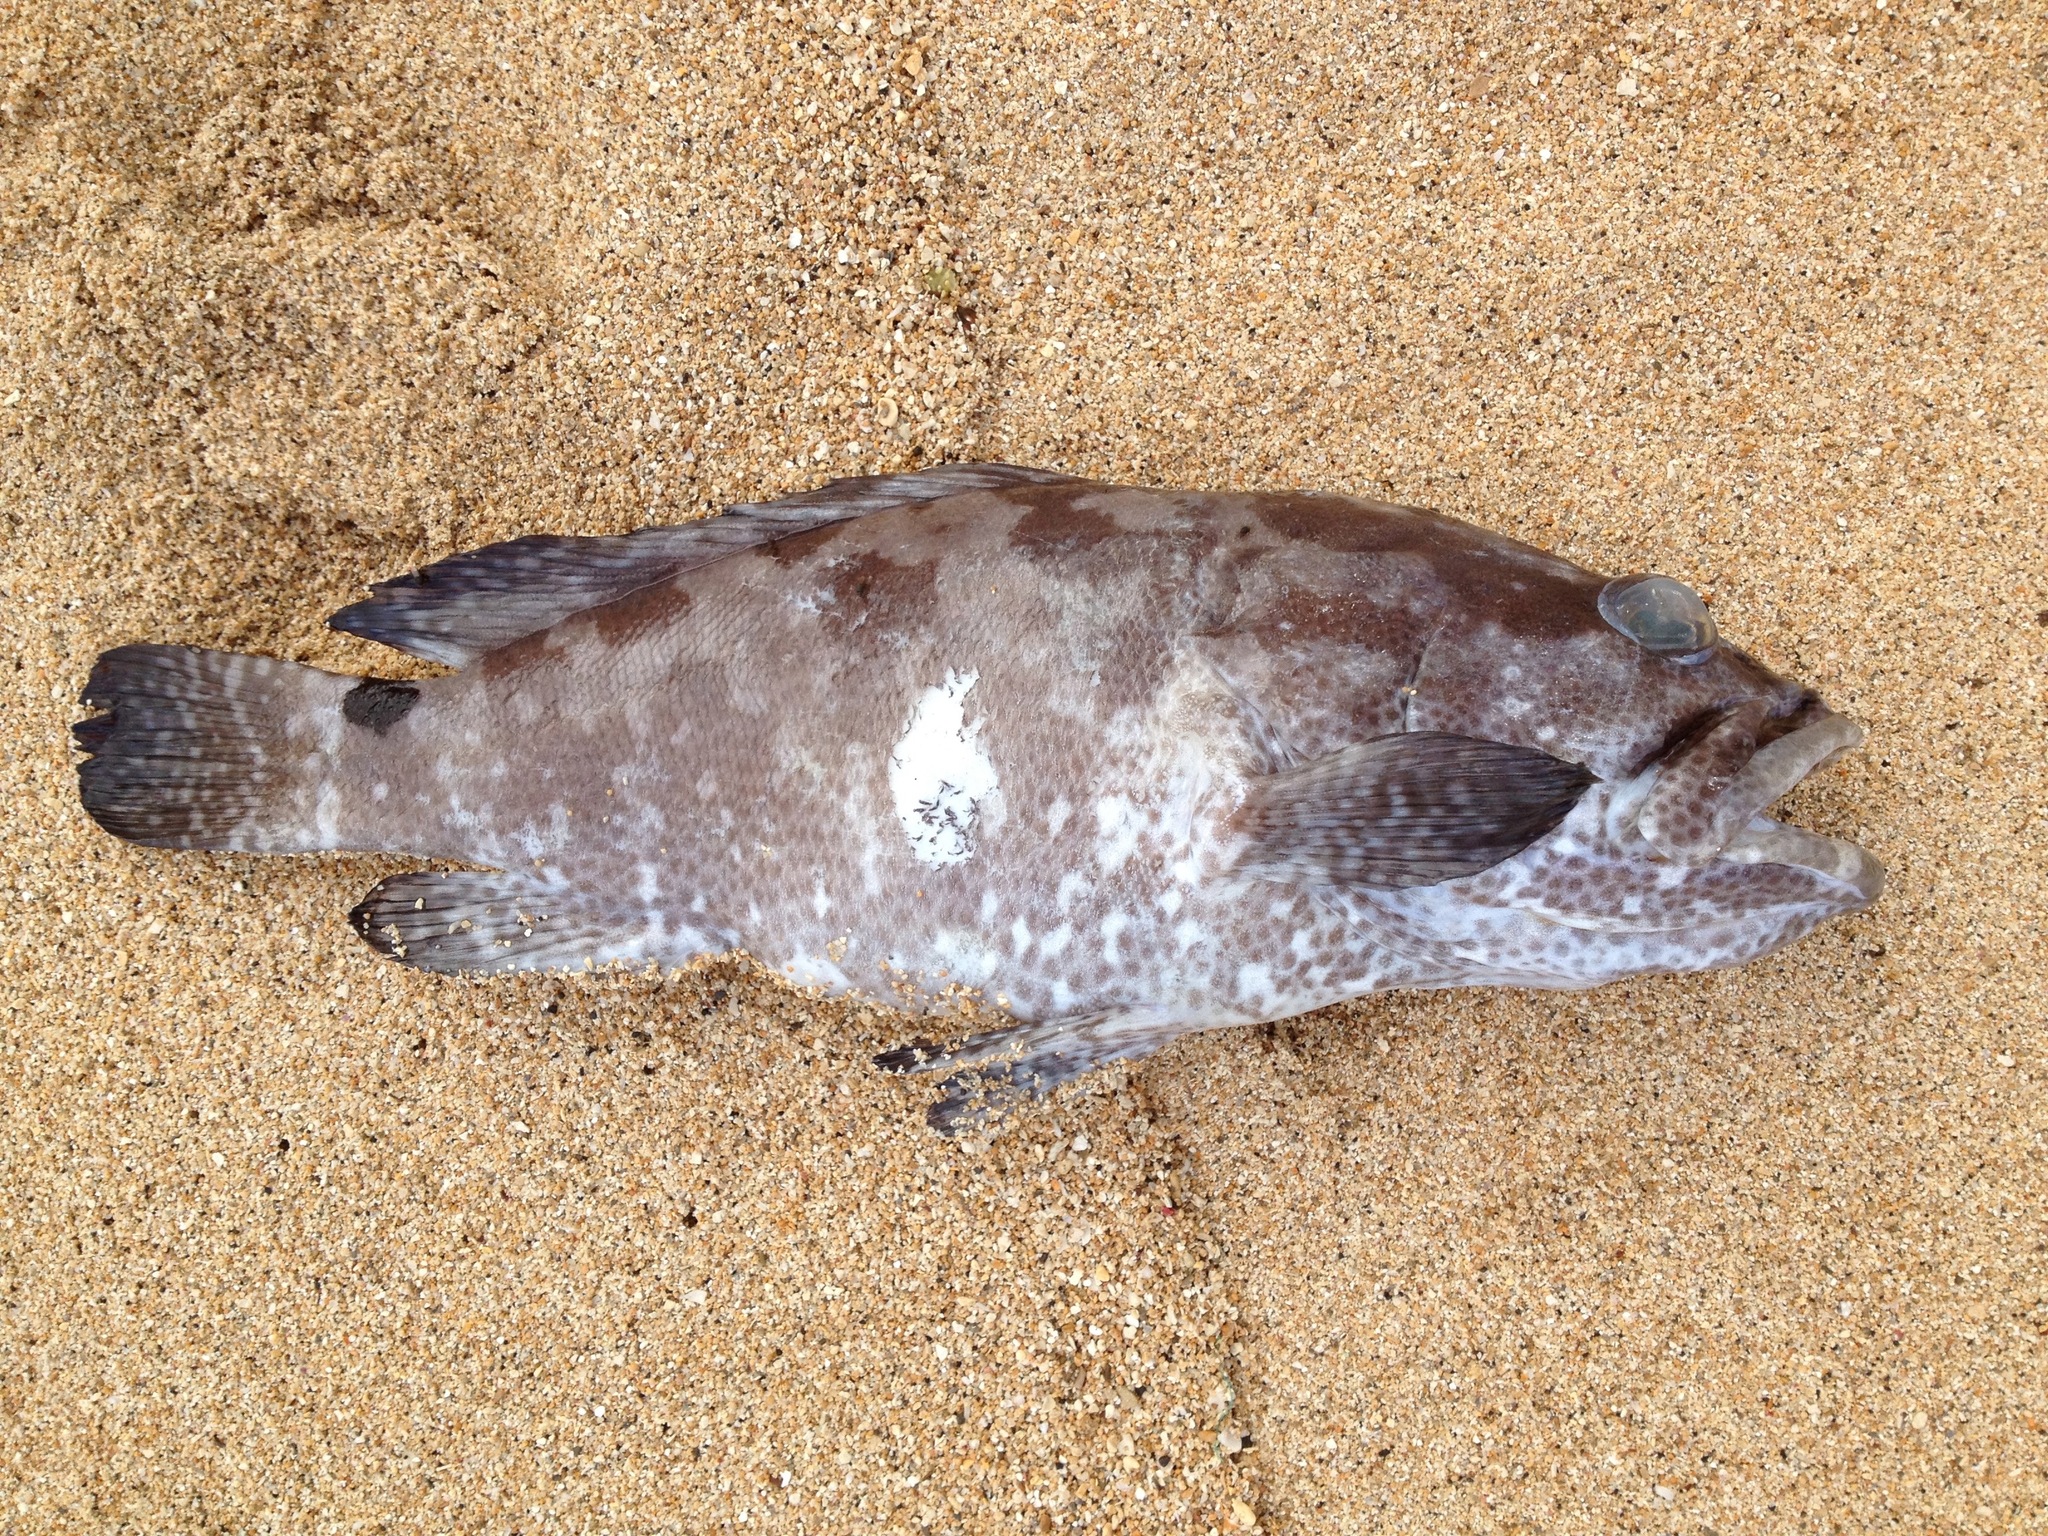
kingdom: Animalia
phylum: Chordata
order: Perciformes
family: Serranidae
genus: Epinephelus
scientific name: Epinephelus polyphekadion
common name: Camouflage grouper
